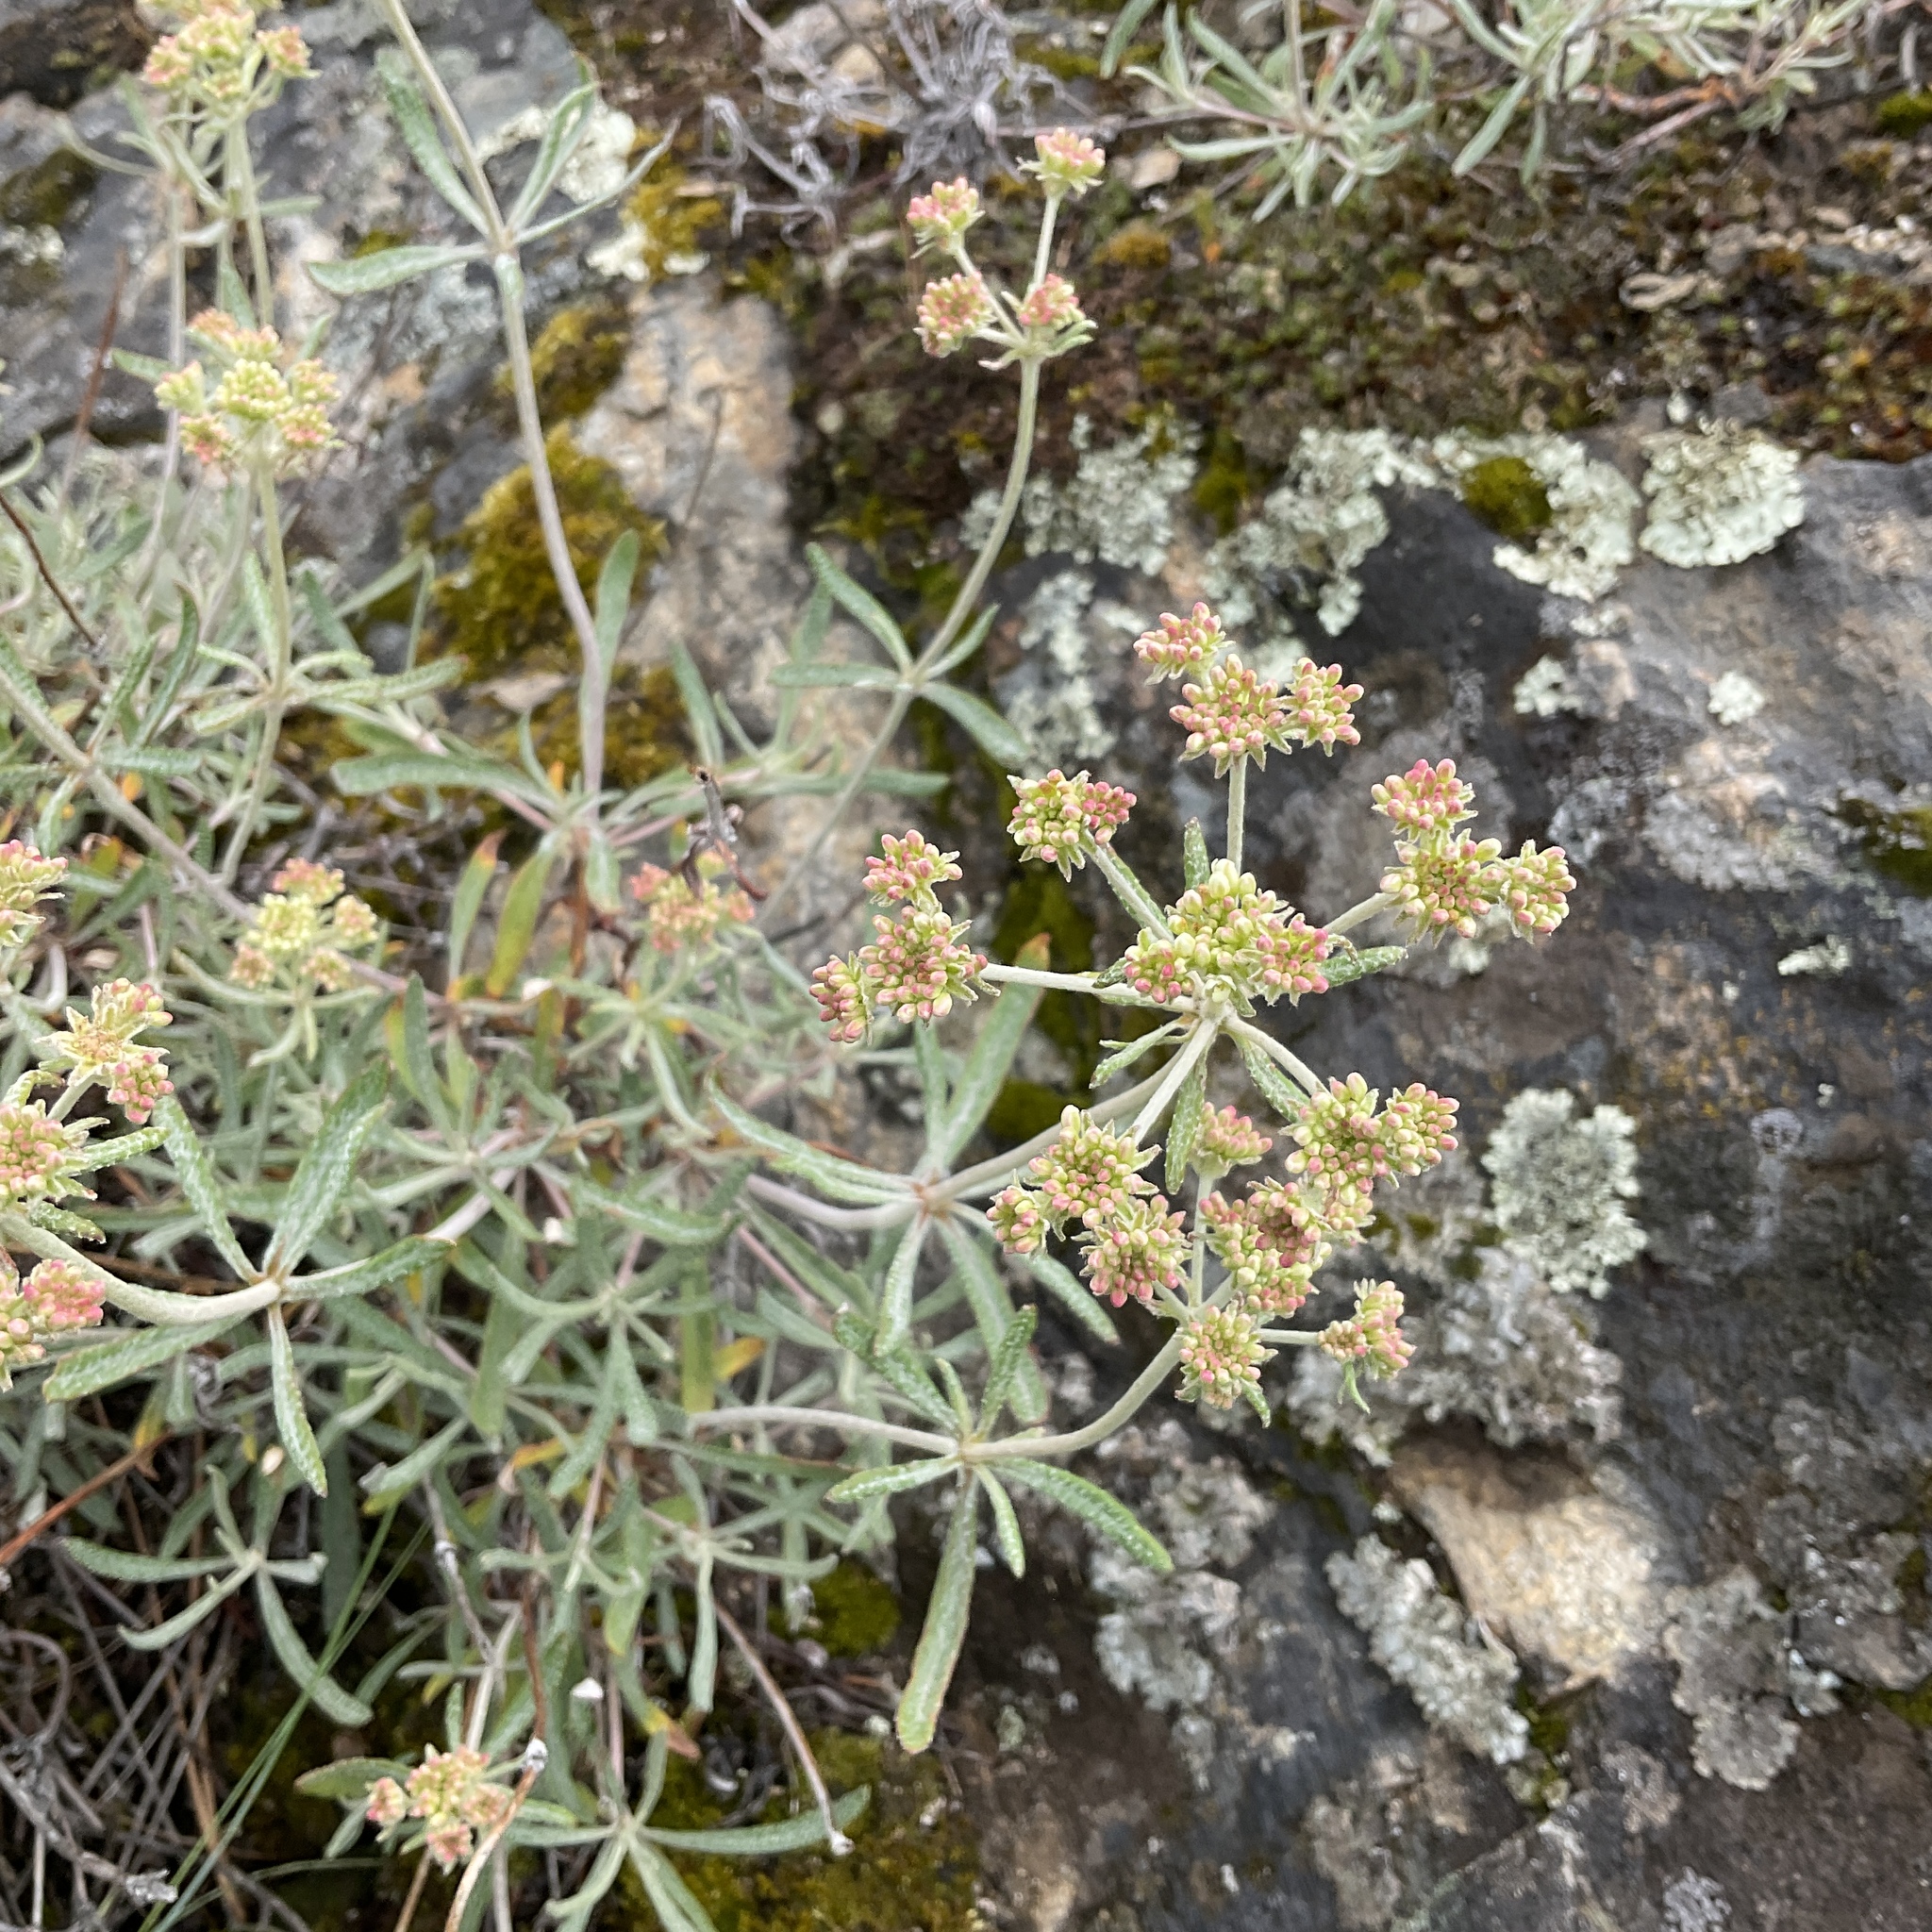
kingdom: Plantae
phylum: Tracheophyta
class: Magnoliopsida
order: Caryophyllales
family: Polygonaceae
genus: Eriogonum
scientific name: Eriogonum heracleoides
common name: Wyeth's buckwheat
